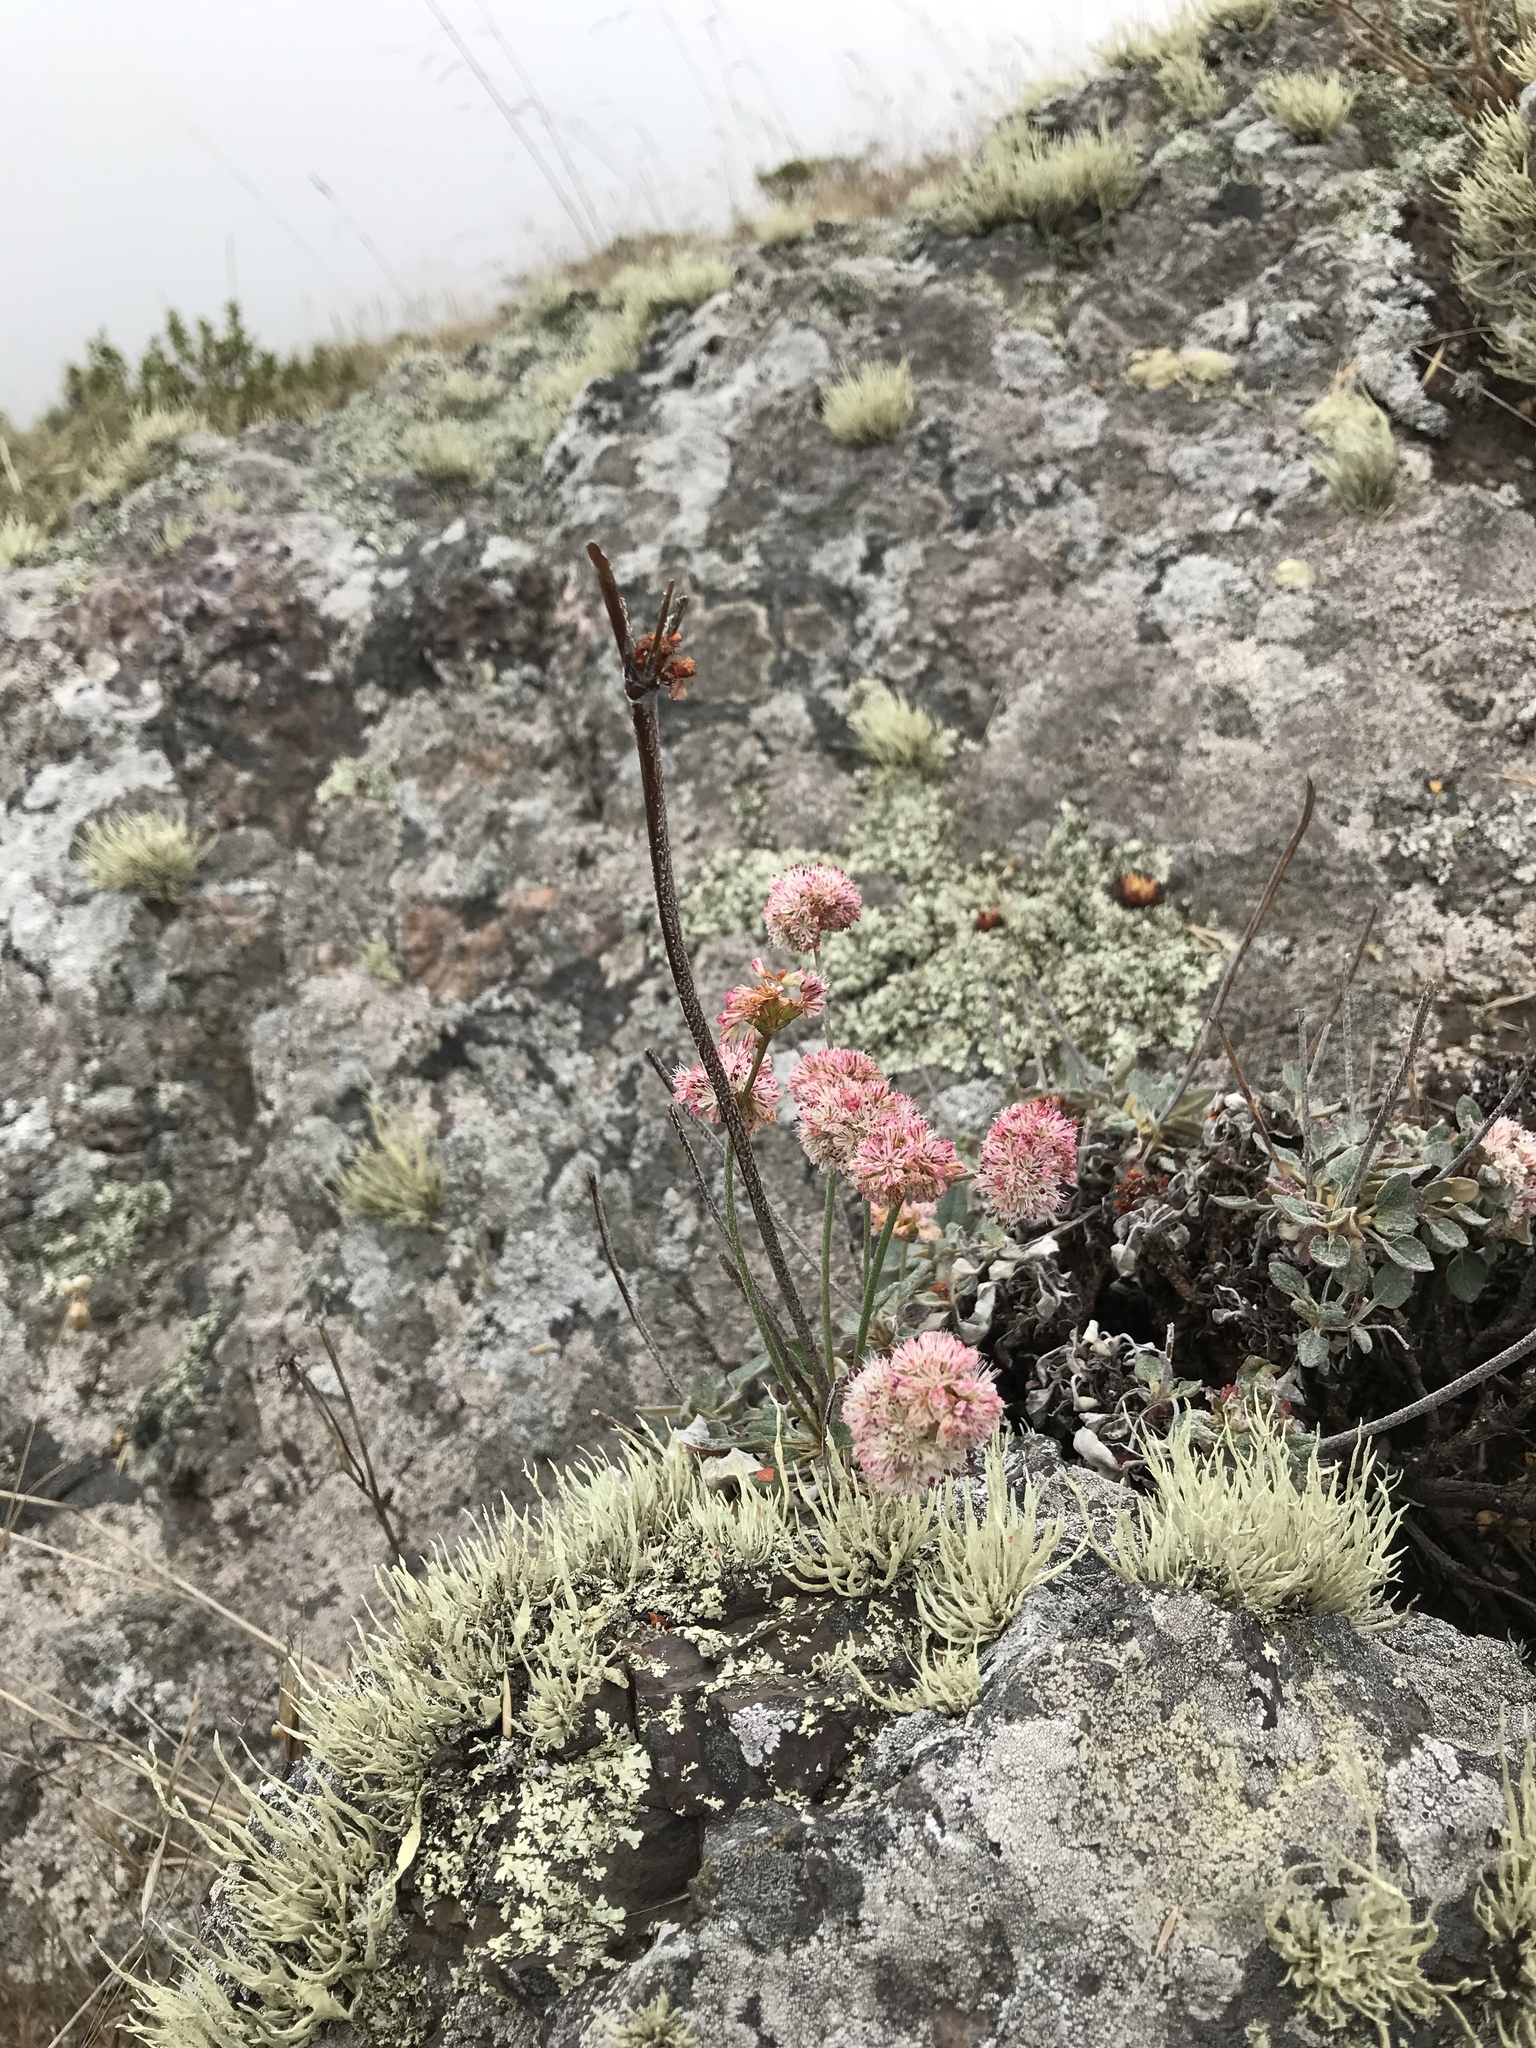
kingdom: Plantae
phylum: Tracheophyta
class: Magnoliopsida
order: Caryophyllales
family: Polygonaceae
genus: Eriogonum
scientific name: Eriogonum latifolium
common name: Seaside wild buckwheat
